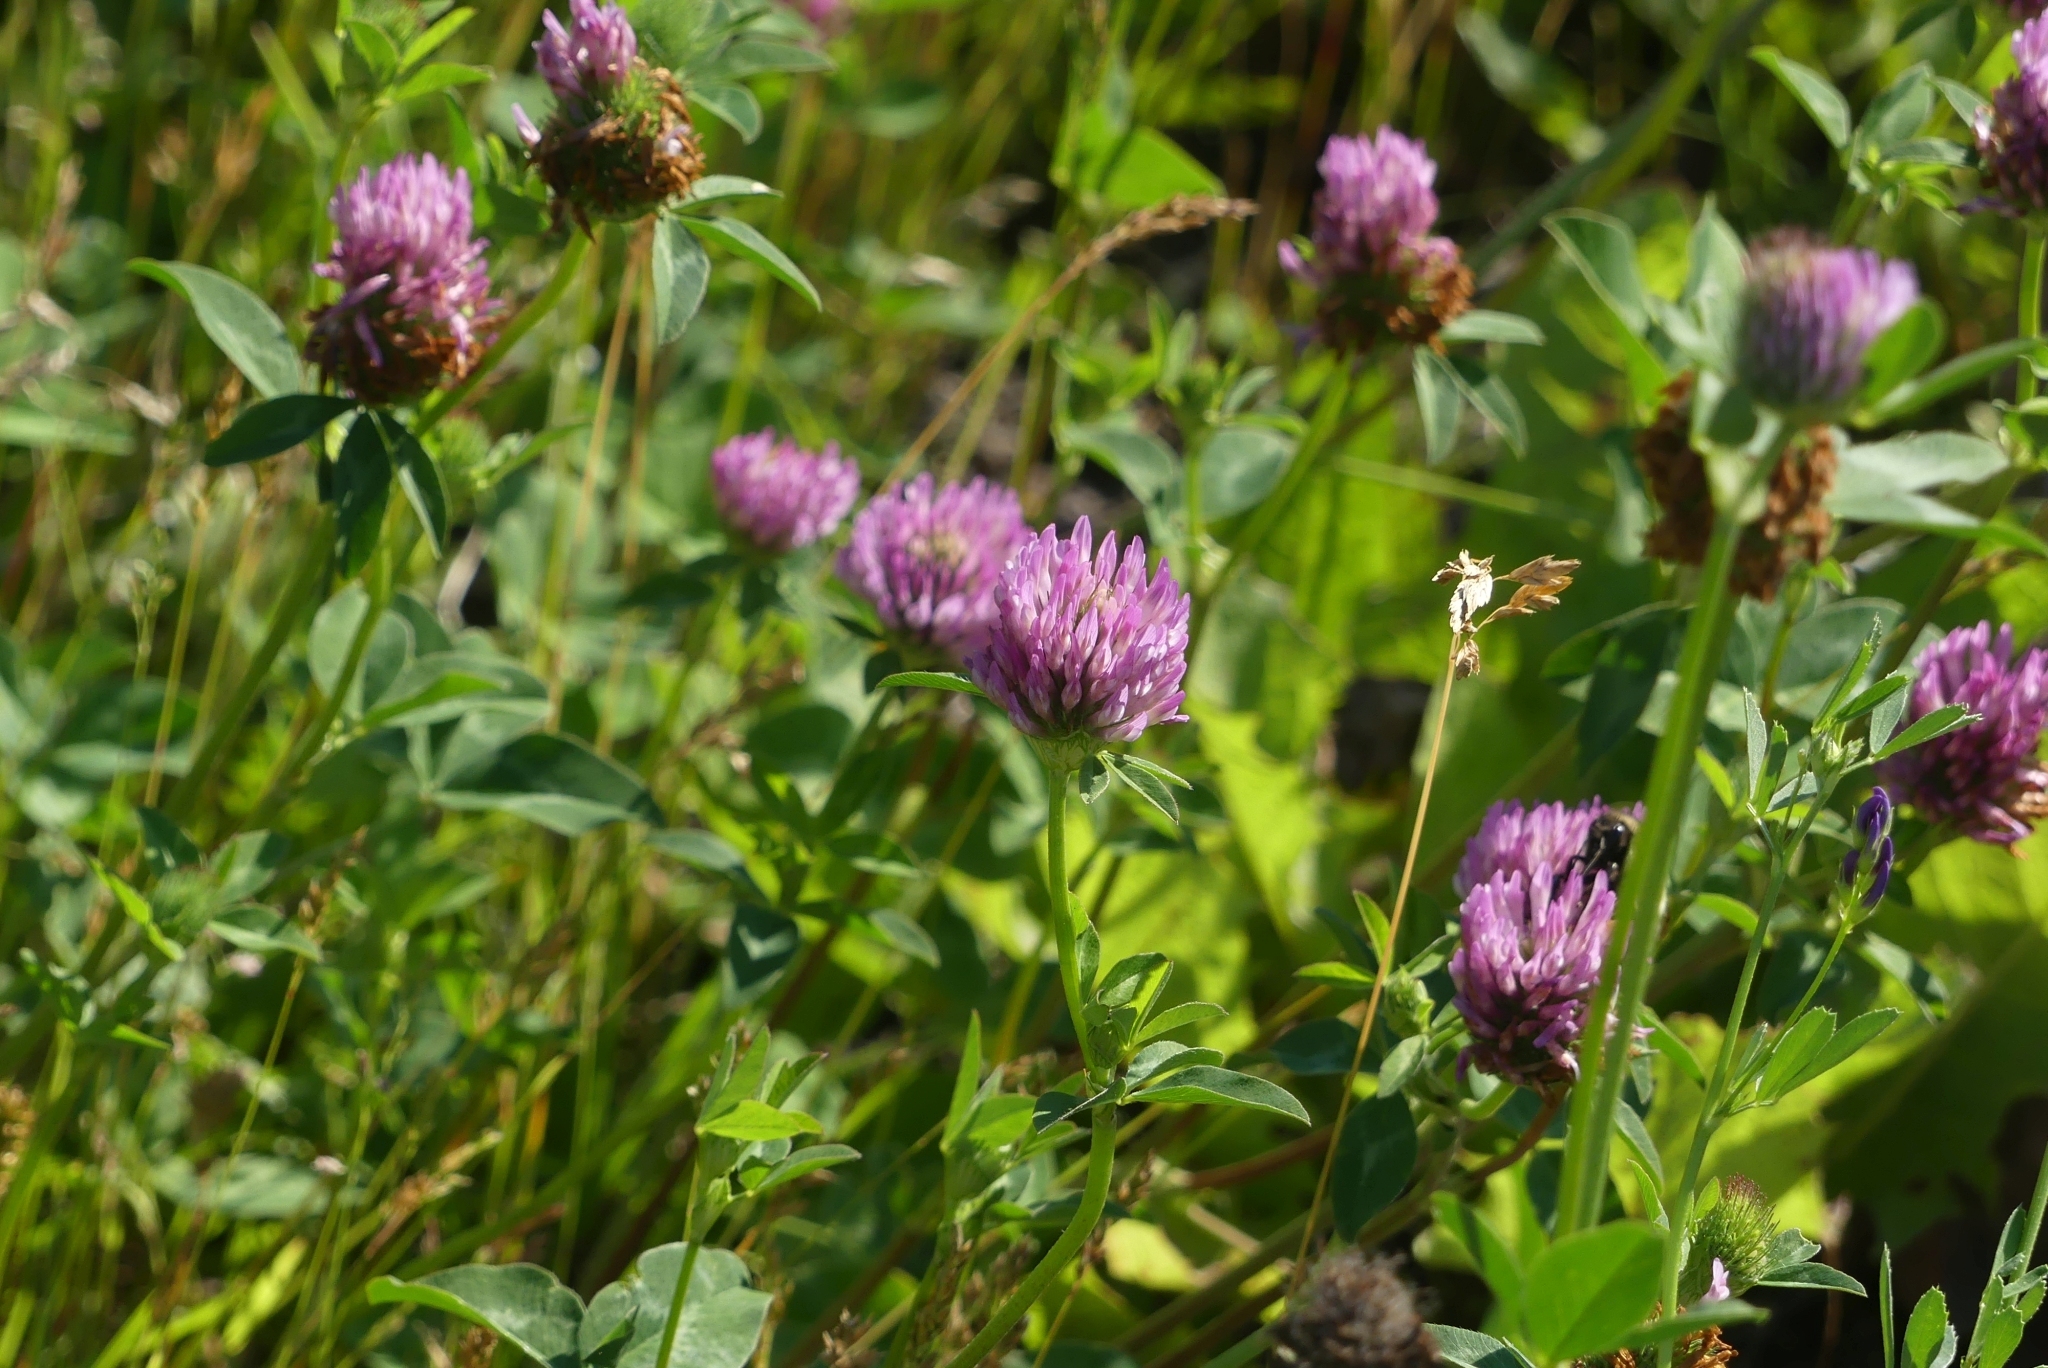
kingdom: Plantae
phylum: Tracheophyta
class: Magnoliopsida
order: Fabales
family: Fabaceae
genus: Trifolium
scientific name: Trifolium pratense
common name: Red clover
